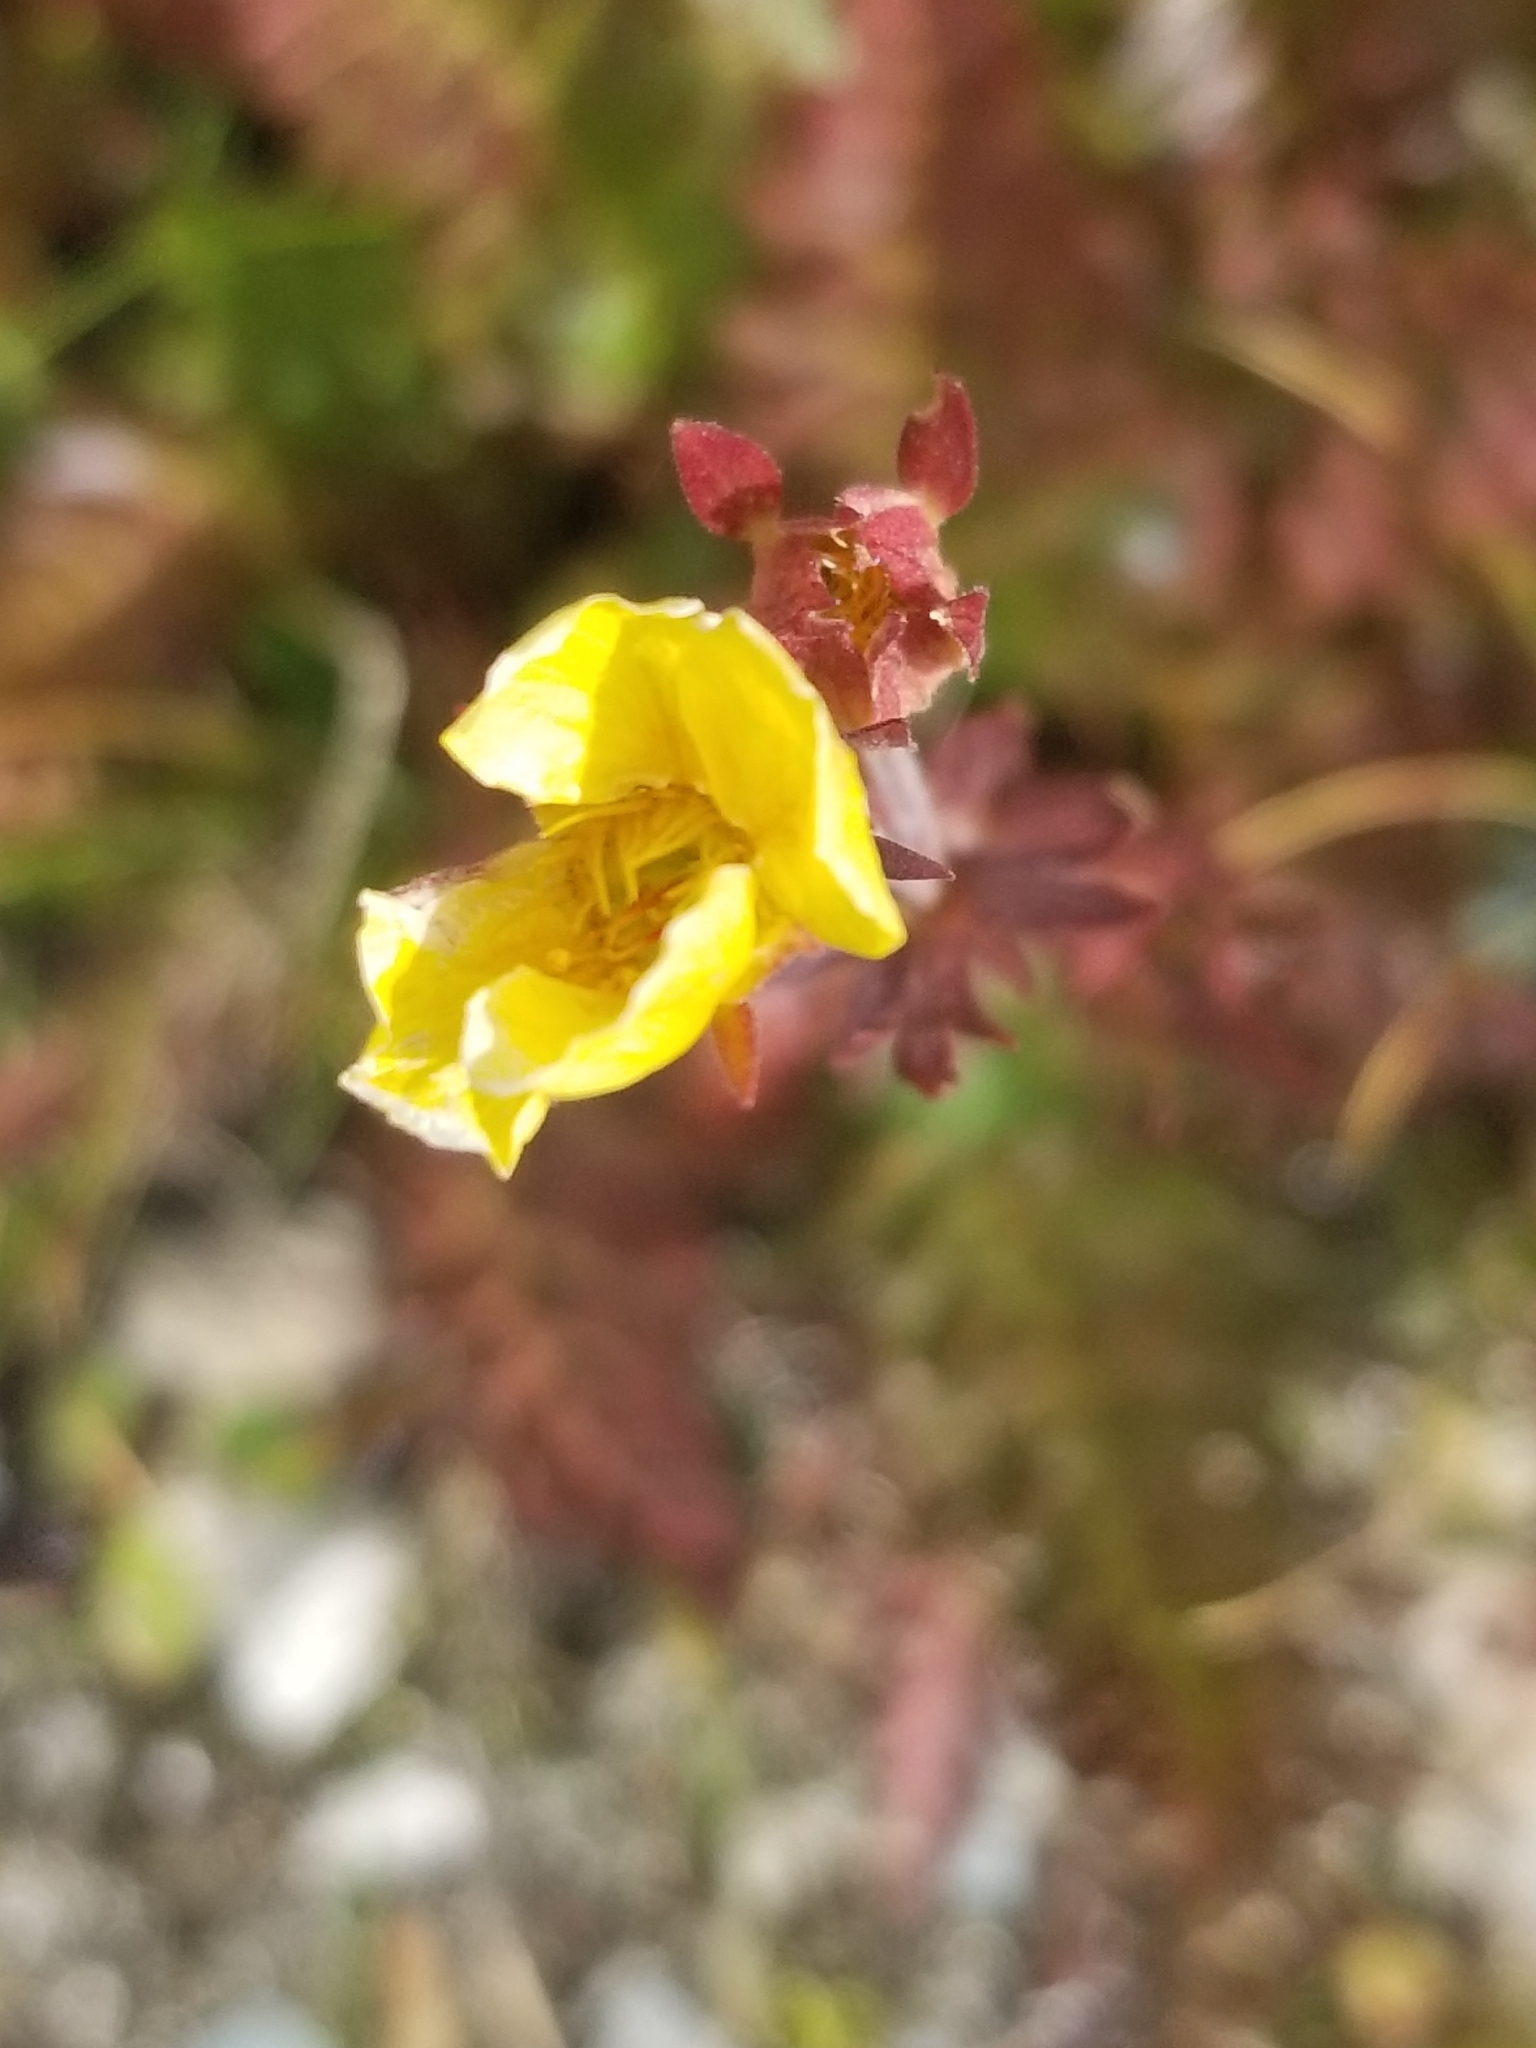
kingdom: Plantae
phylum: Tracheophyta
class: Magnoliopsida
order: Rosales
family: Rosaceae
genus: Geum
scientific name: Geum rossii
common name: Alpine avens
